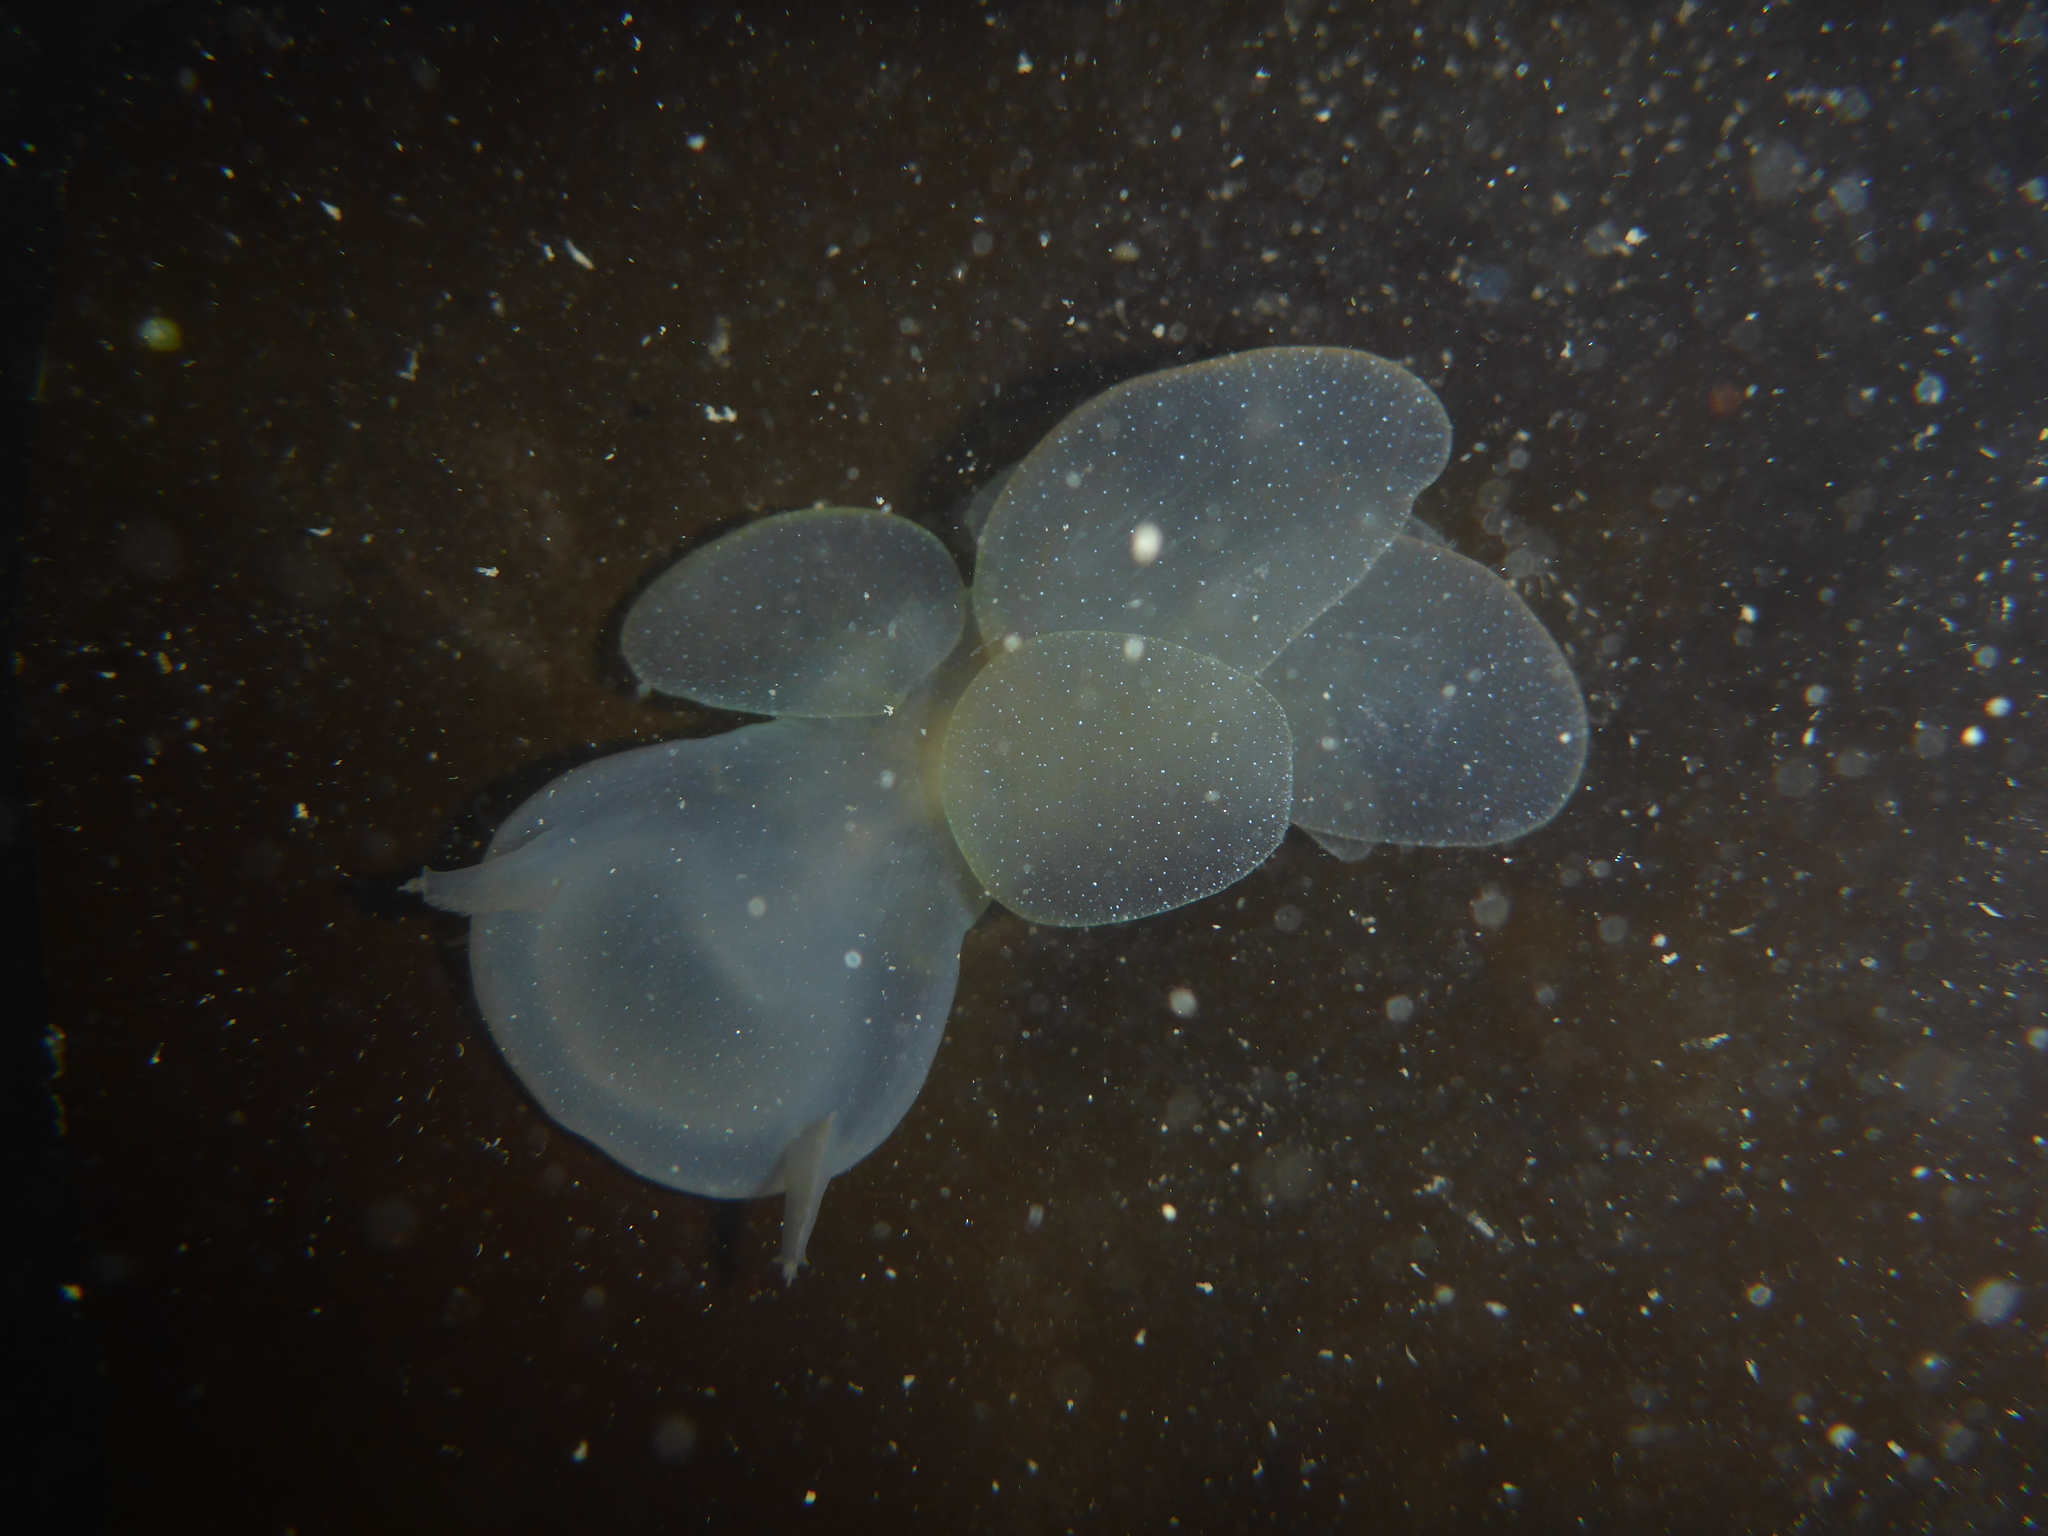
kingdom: Animalia
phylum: Mollusca
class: Gastropoda
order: Nudibranchia
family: Tethydidae
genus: Melibe
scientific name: Melibe leonina
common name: Lion nudibranch
